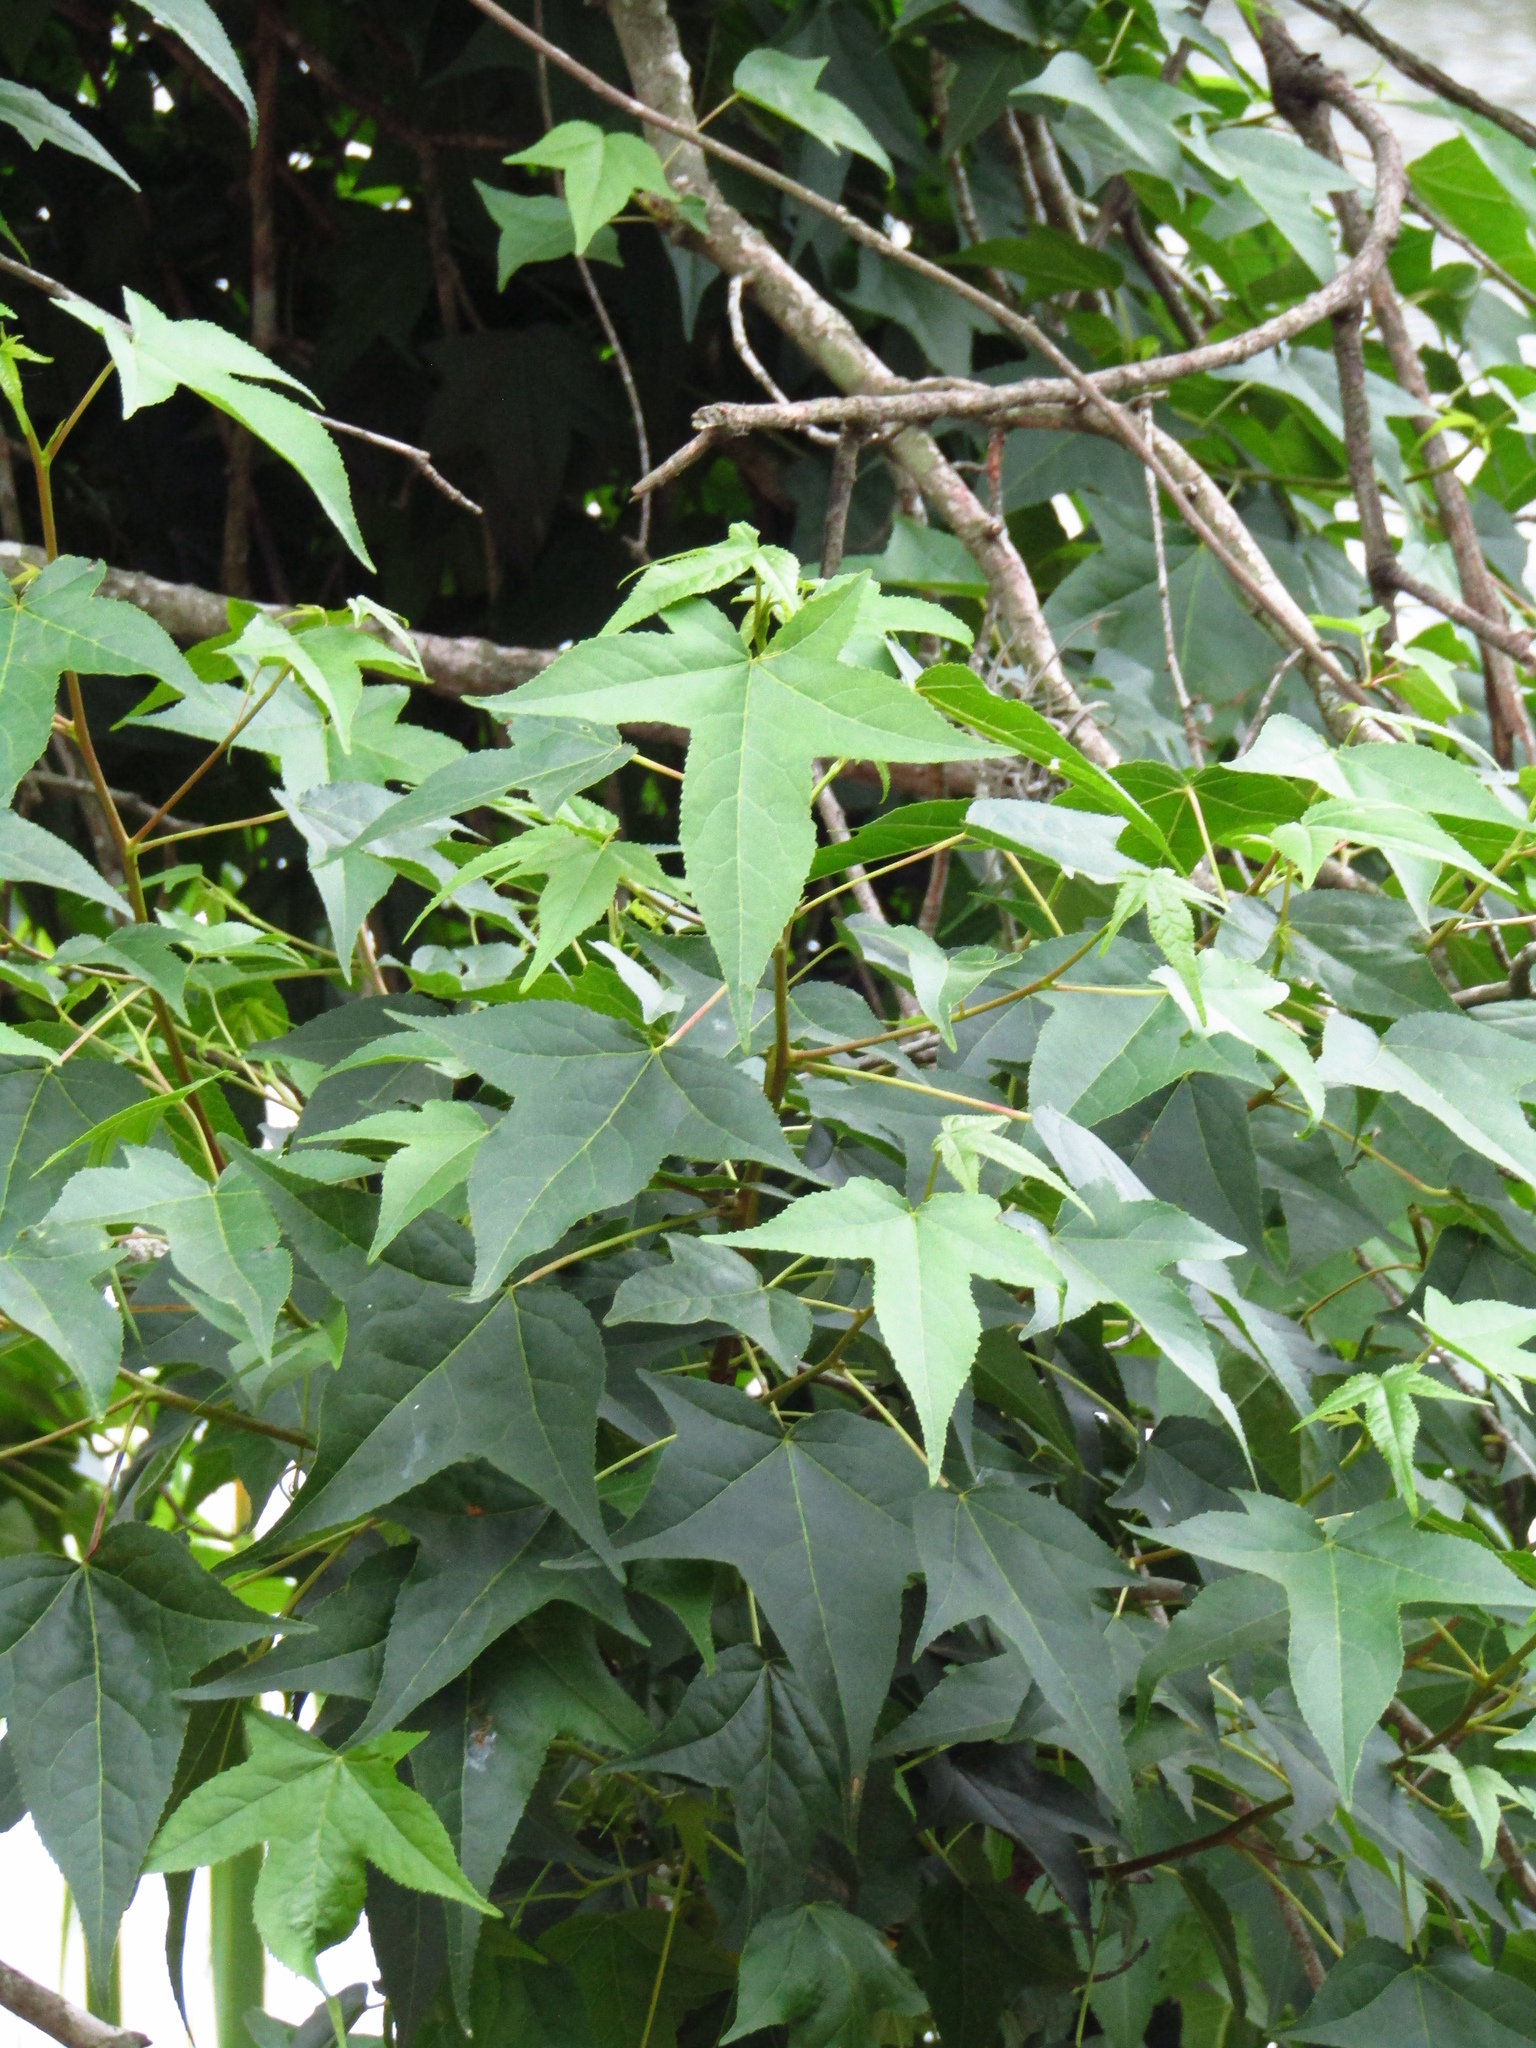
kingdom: Plantae
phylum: Tracheophyta
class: Magnoliopsida
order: Saxifragales
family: Altingiaceae
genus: Liquidambar
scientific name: Liquidambar styraciflua
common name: Sweet gum
